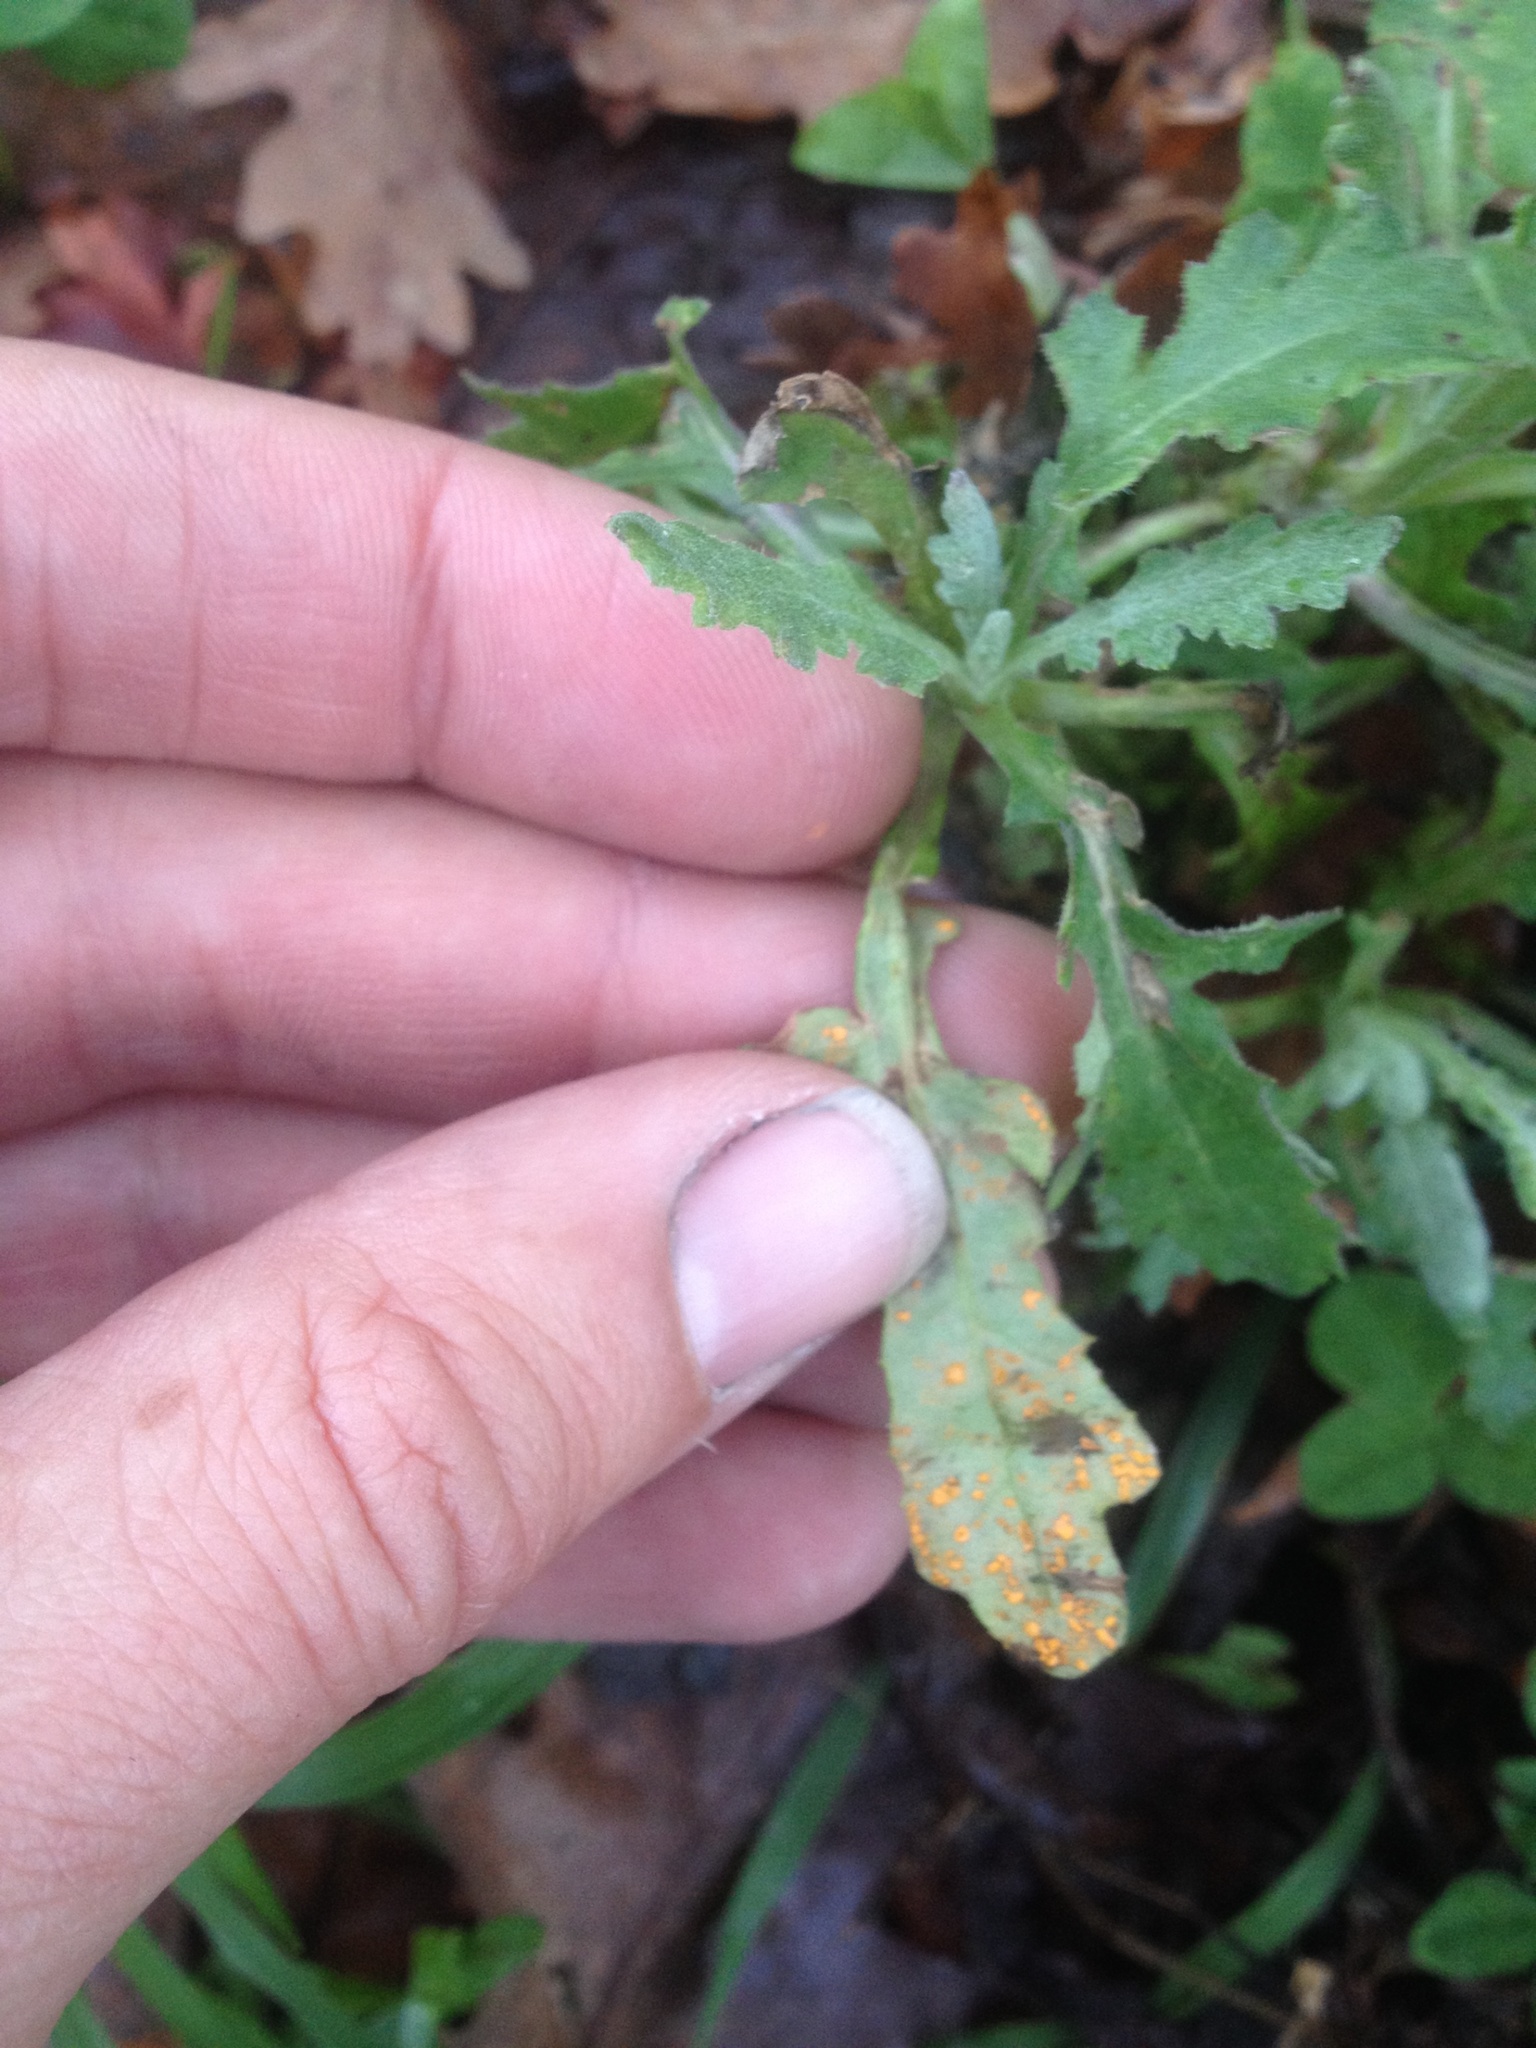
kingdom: Fungi
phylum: Basidiomycota
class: Pucciniomycetes
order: Pucciniales
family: Coleosporiaceae
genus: Coleosporium
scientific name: Coleosporium tussilaginis
